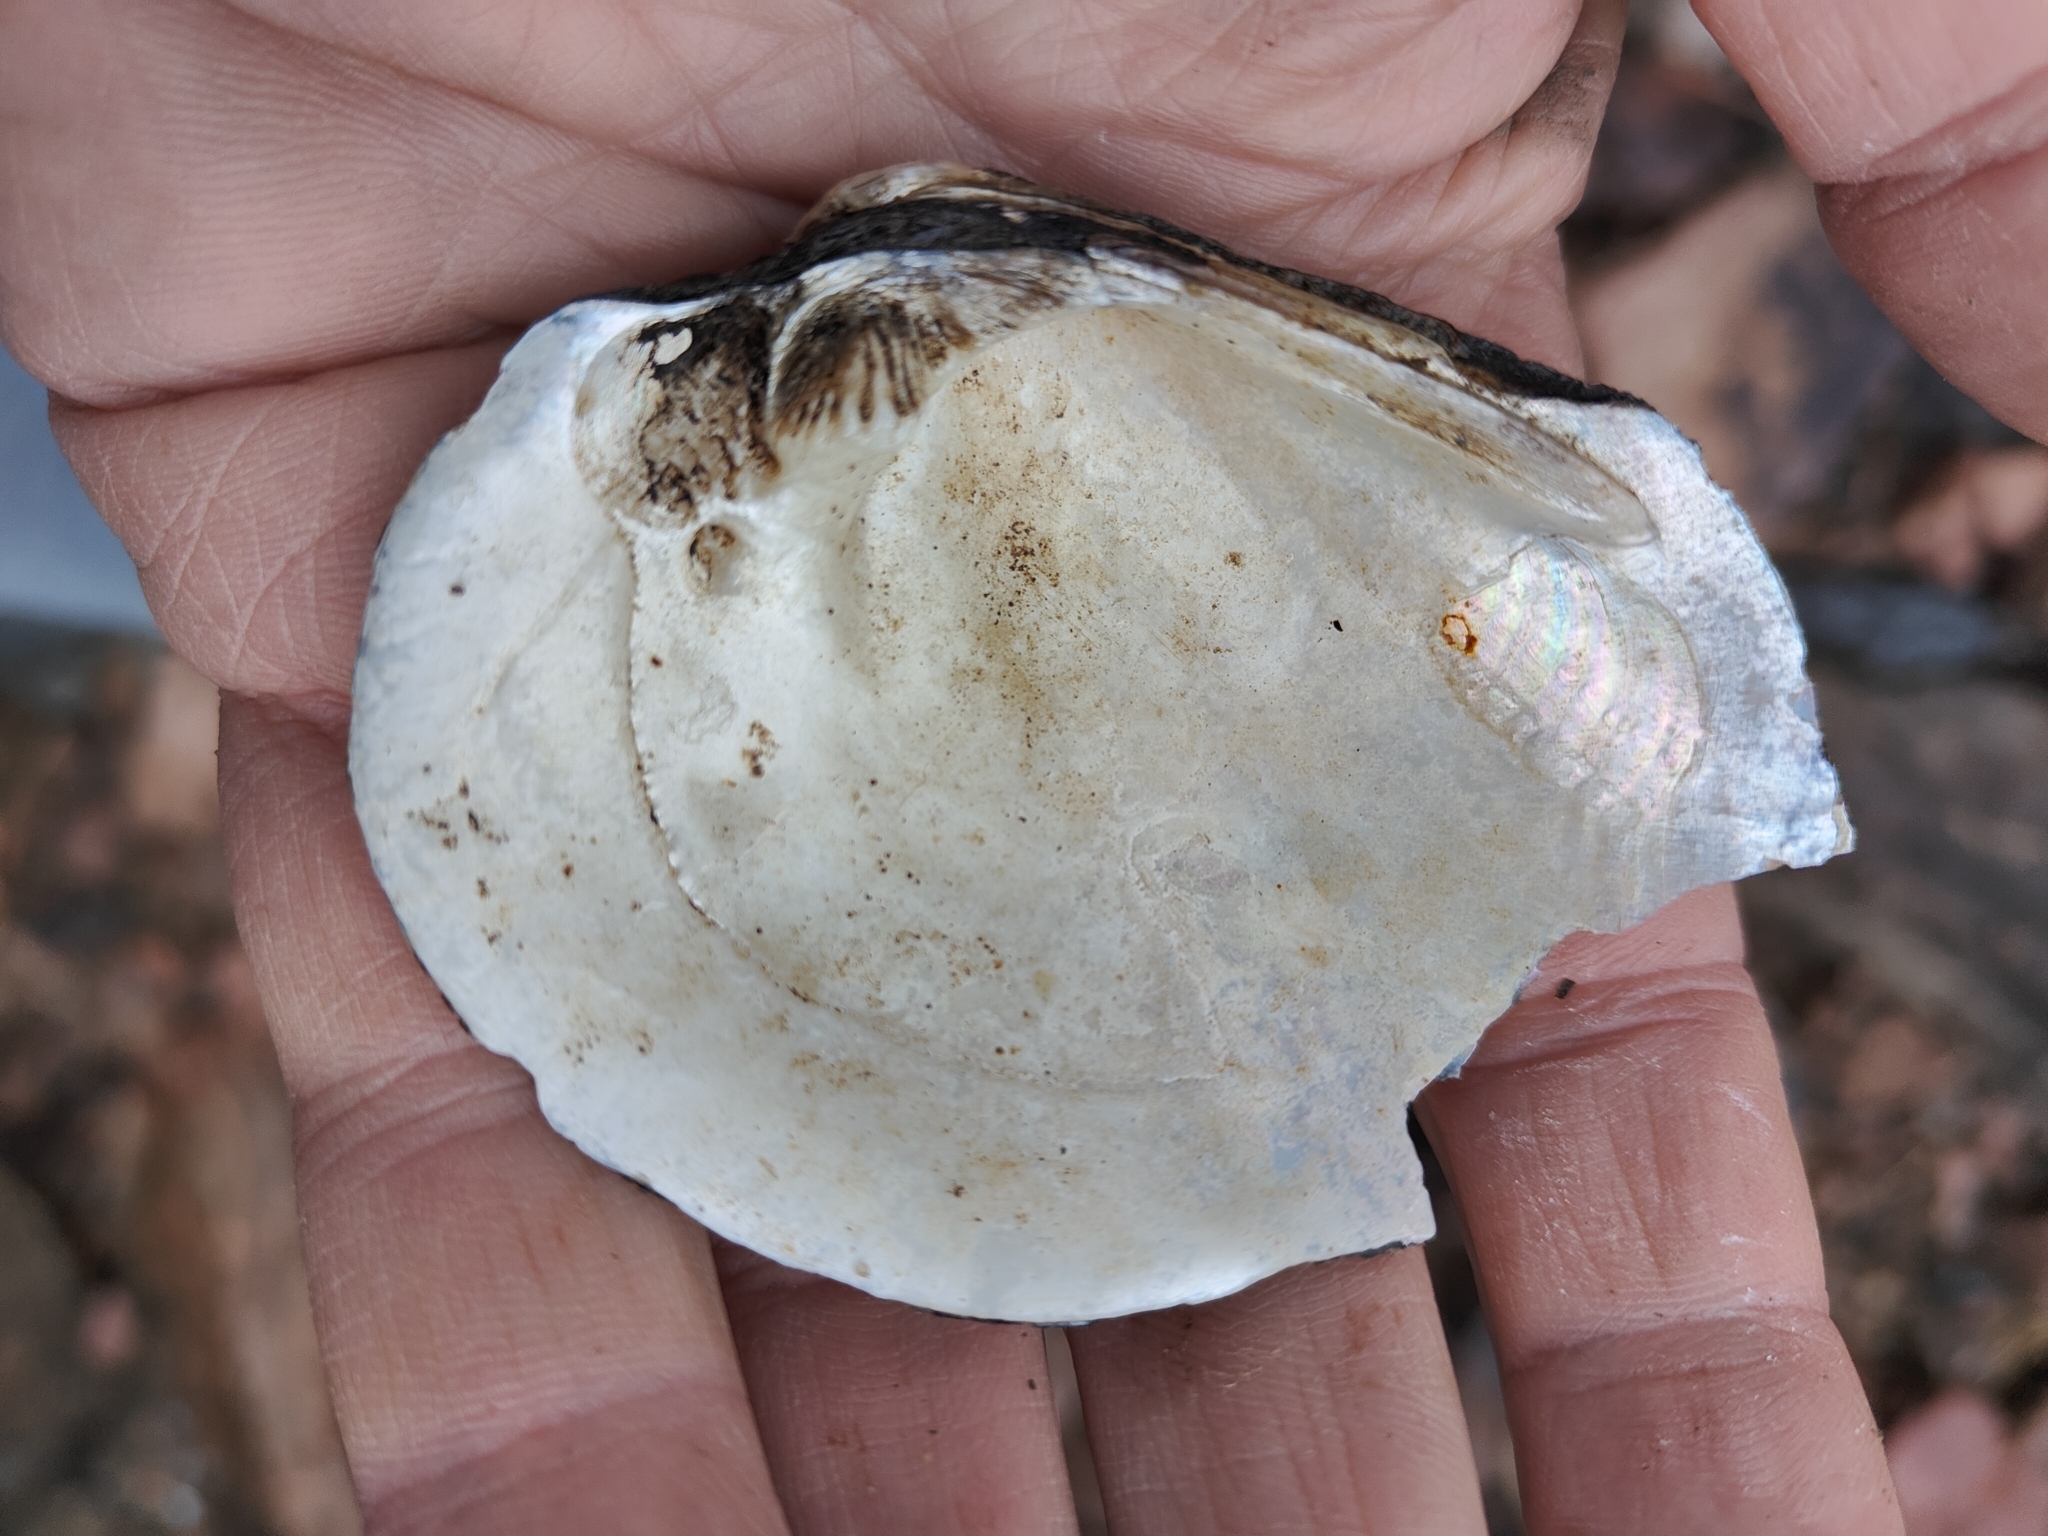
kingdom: Animalia
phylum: Mollusca
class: Bivalvia
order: Unionida
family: Unionidae
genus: Tritogonia
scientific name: Tritogonia nobilis
